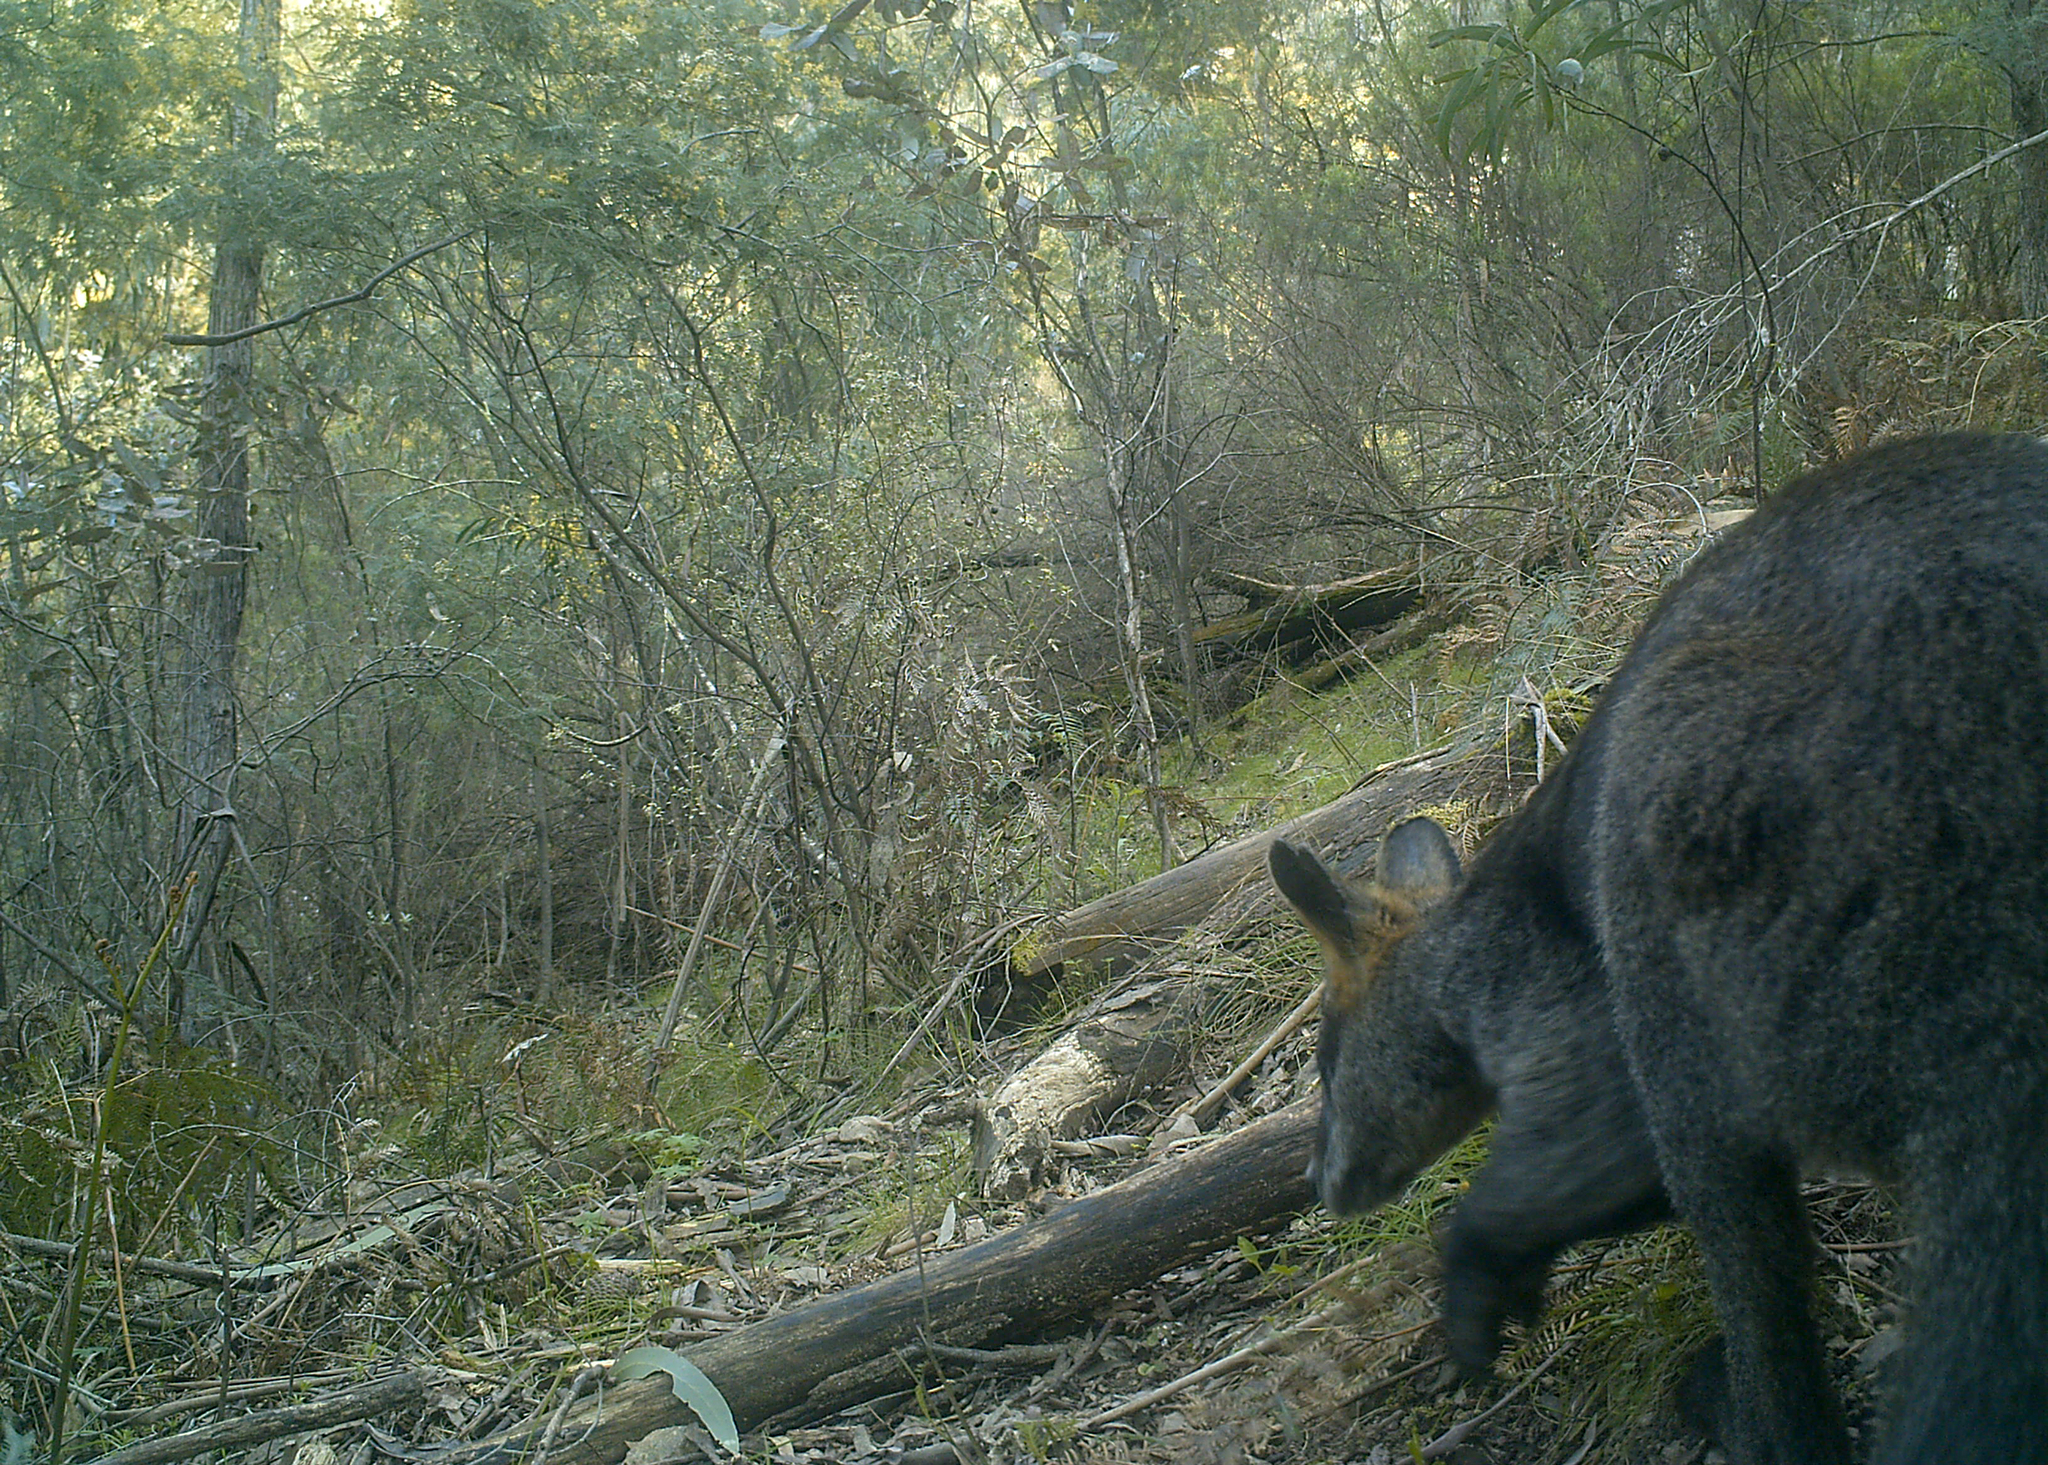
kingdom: Animalia
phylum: Chordata
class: Mammalia
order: Diprotodontia
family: Macropodidae
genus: Wallabia
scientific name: Wallabia bicolor
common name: Swamp wallaby
